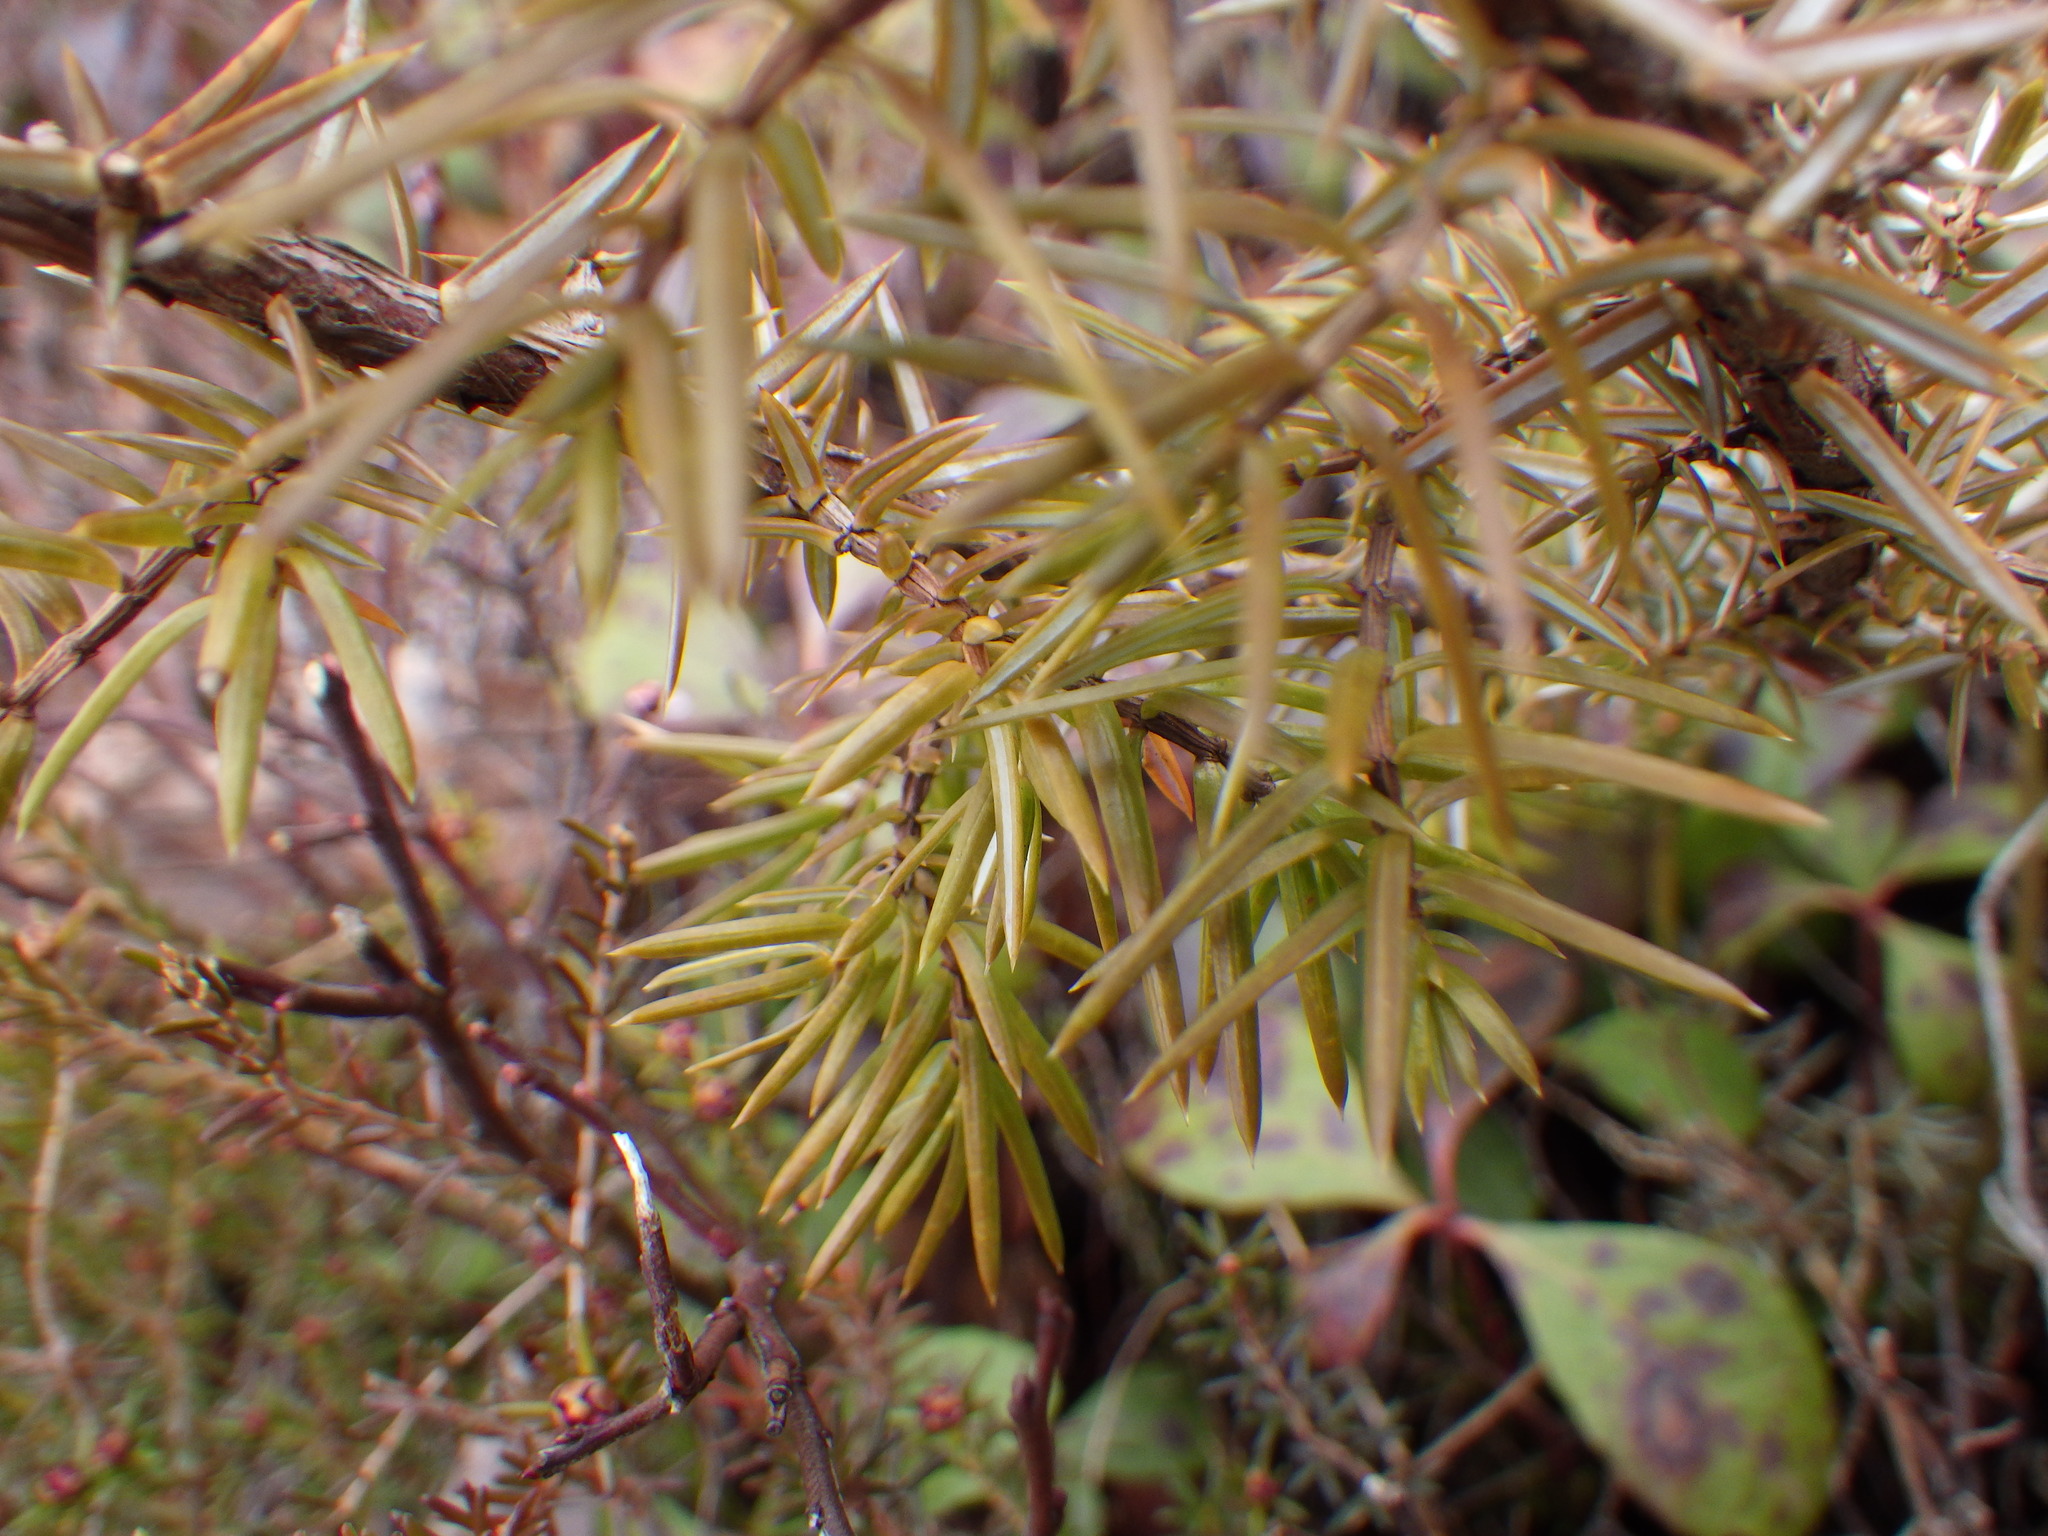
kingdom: Plantae
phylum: Tracheophyta
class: Pinopsida
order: Pinales
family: Cupressaceae
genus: Juniperus
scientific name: Juniperus communis
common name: Common juniper
